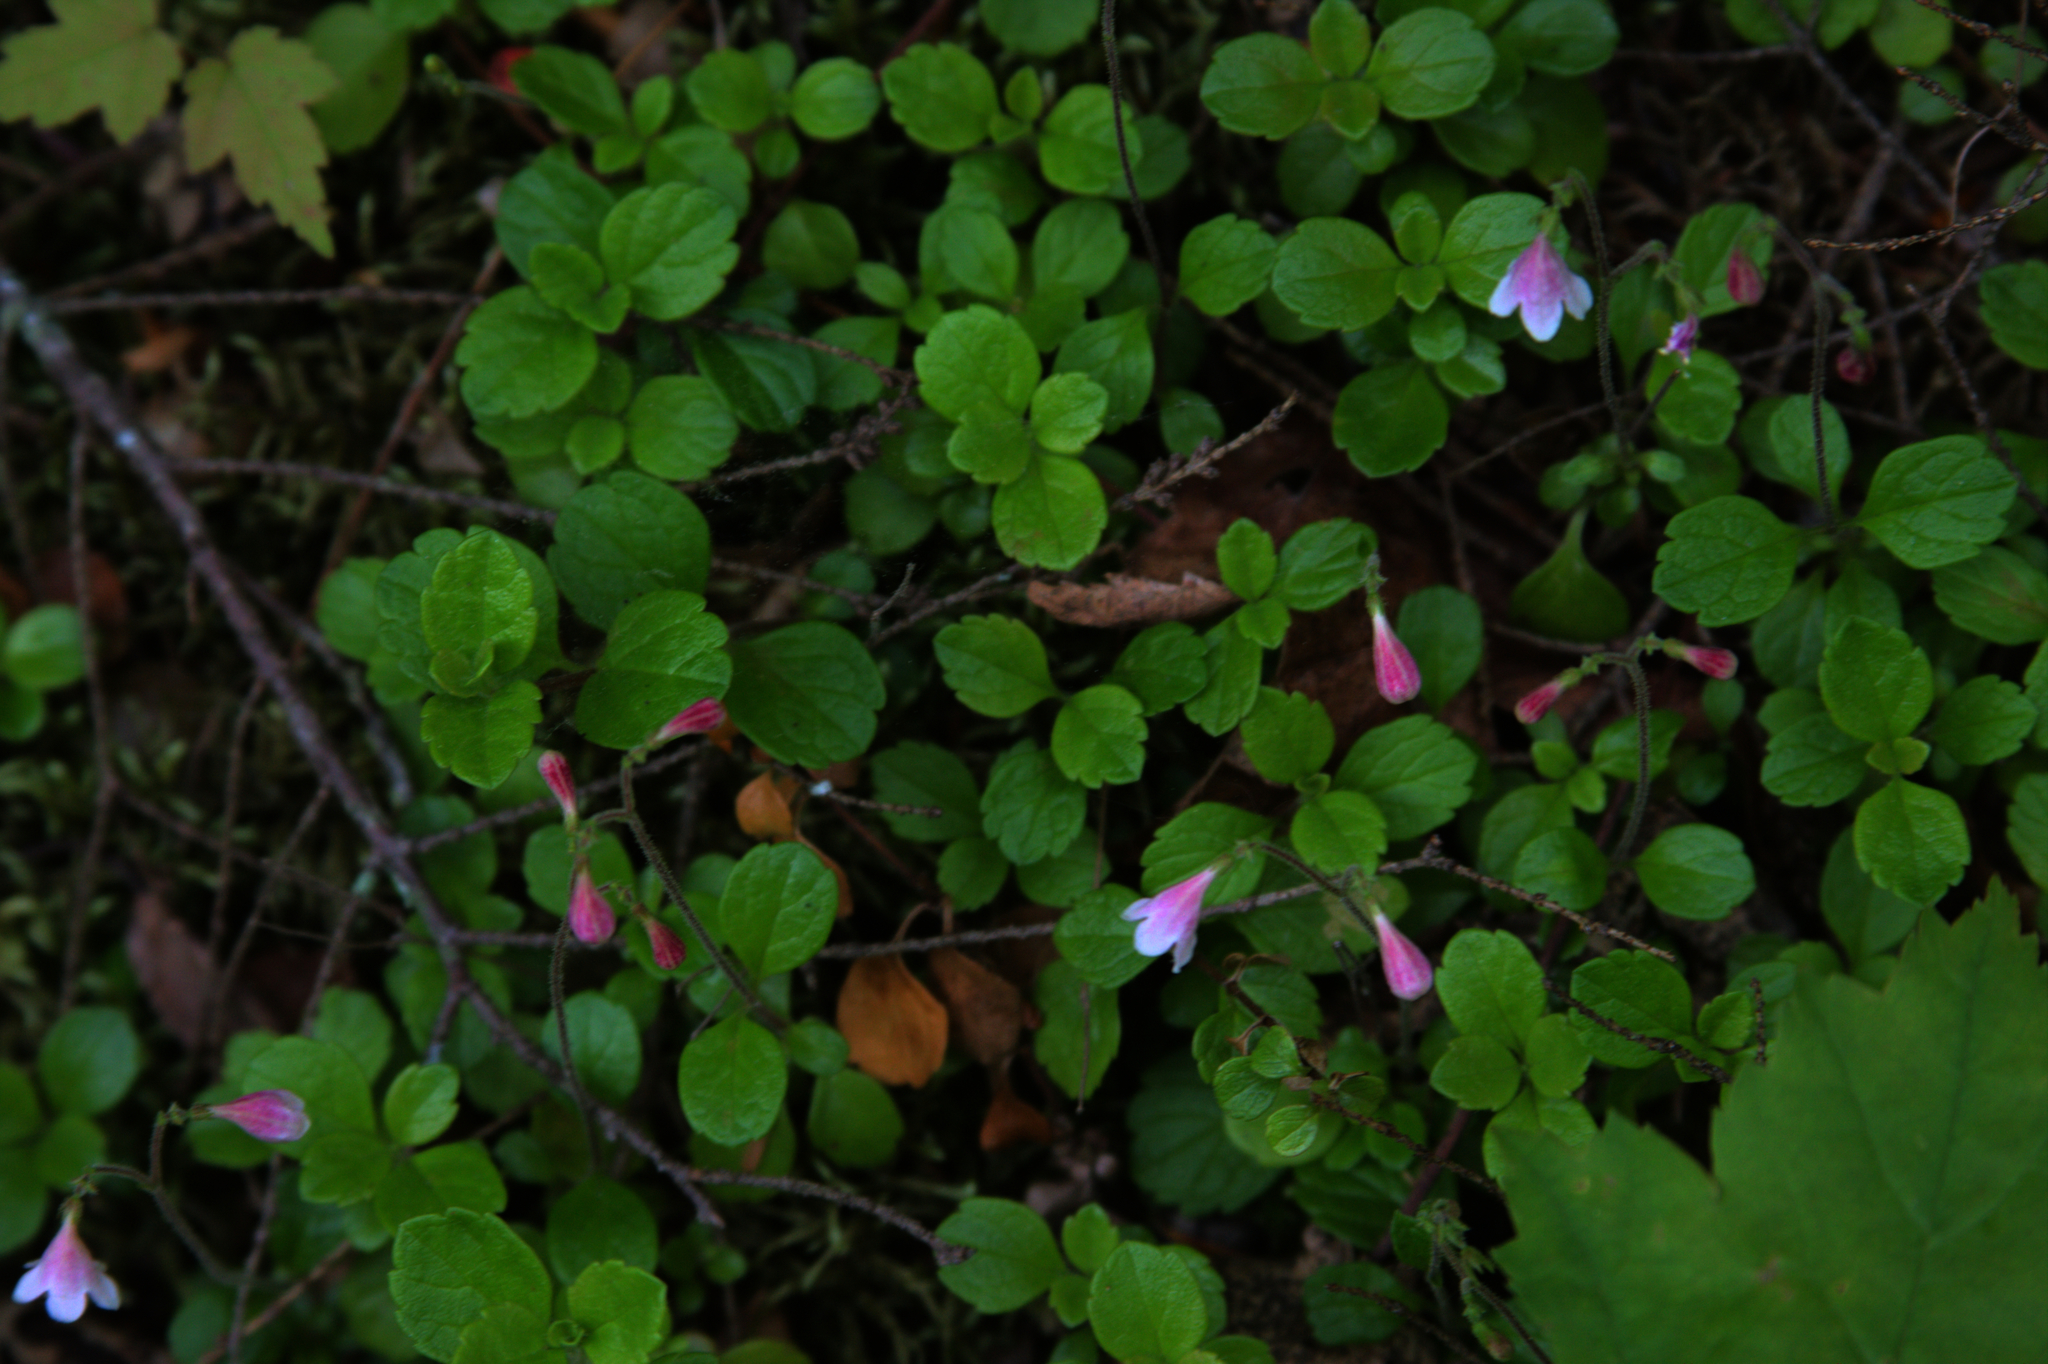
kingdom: Plantae
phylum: Tracheophyta
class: Magnoliopsida
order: Dipsacales
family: Caprifoliaceae
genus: Linnaea
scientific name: Linnaea borealis
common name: Twinflower
